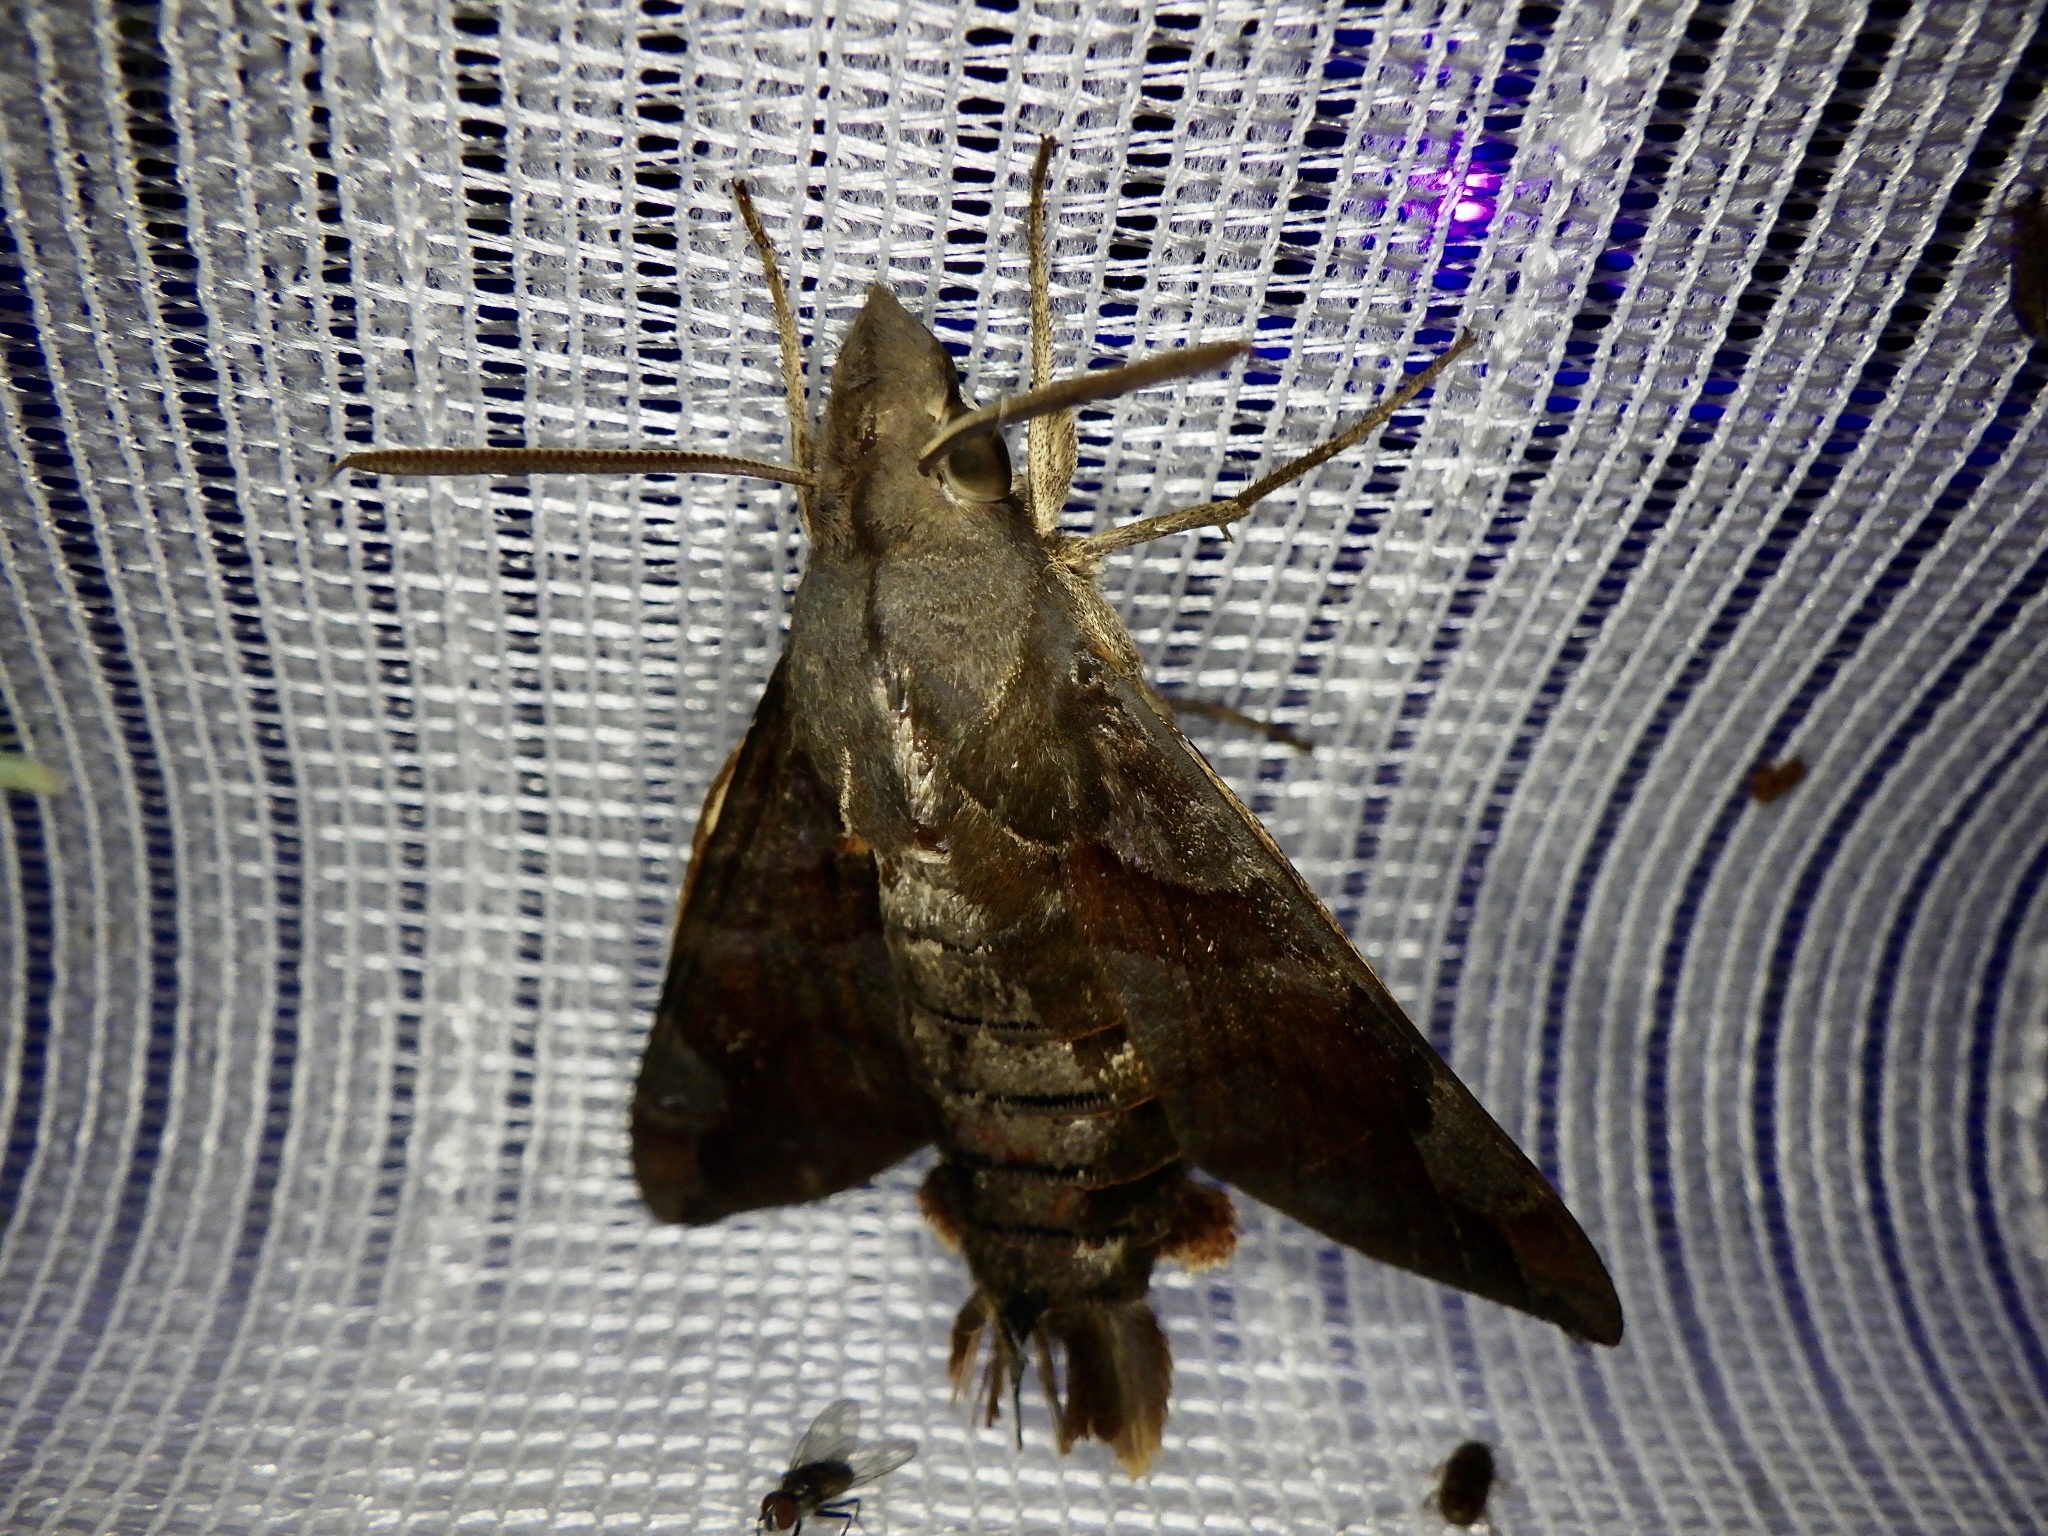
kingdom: Animalia
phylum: Arthropoda
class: Insecta
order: Lepidoptera
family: Sphingidae
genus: Macroglossum
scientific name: Macroglossum saga
